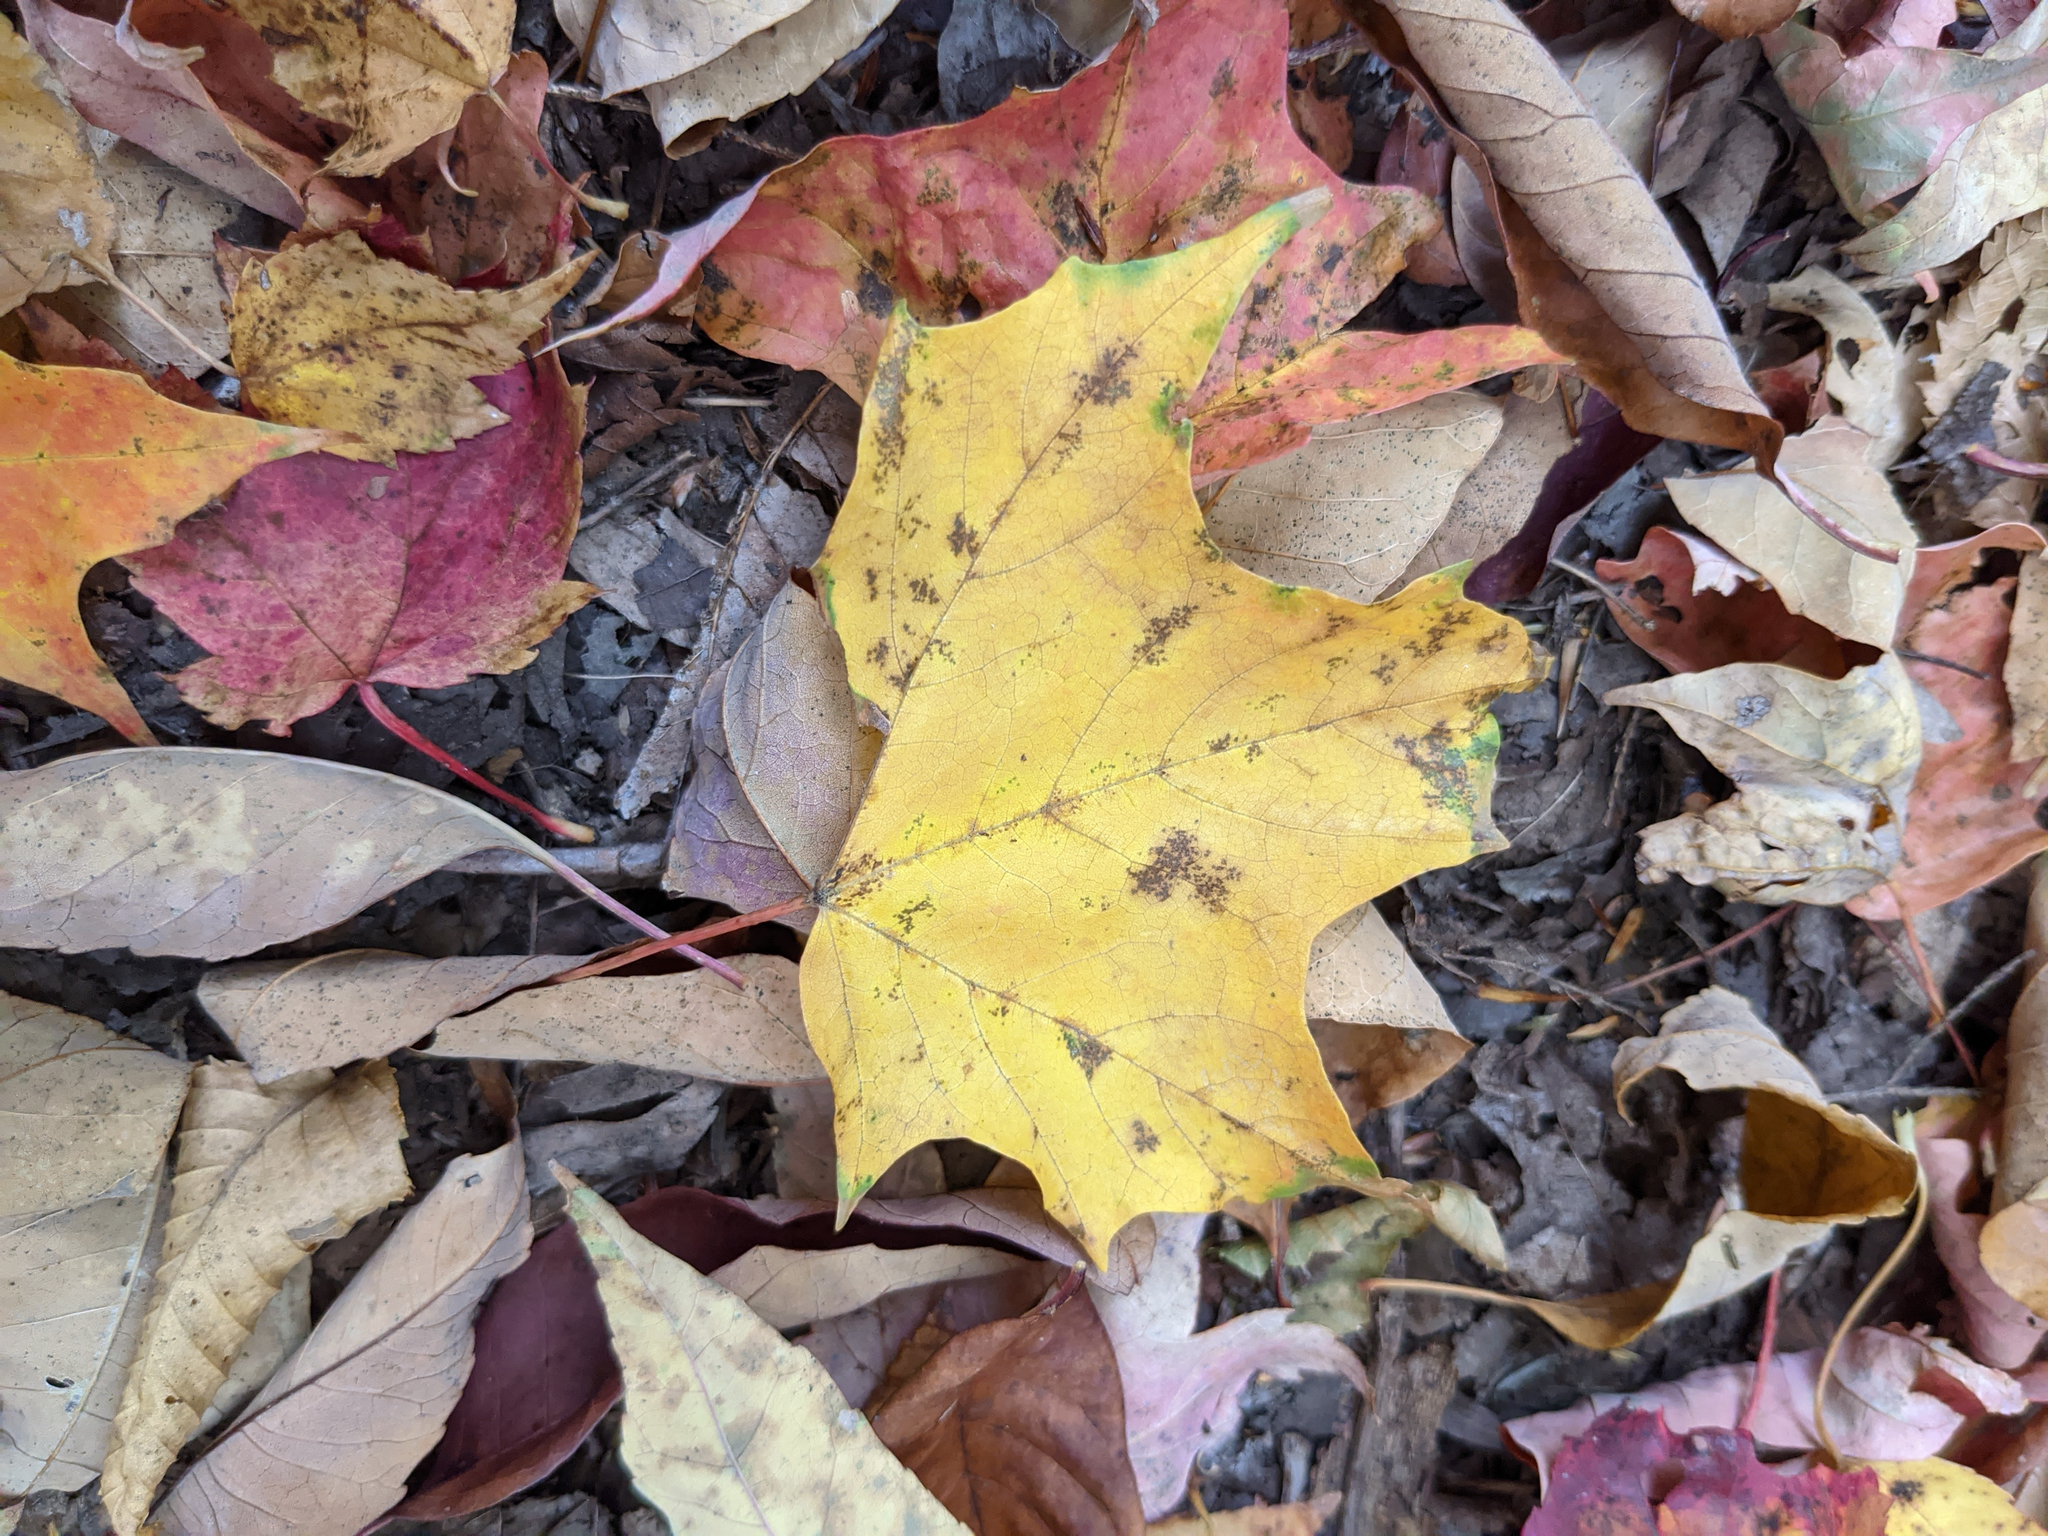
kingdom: Plantae
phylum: Tracheophyta
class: Magnoliopsida
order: Sapindales
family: Sapindaceae
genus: Acer
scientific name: Acer saccharum
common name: Sugar maple
